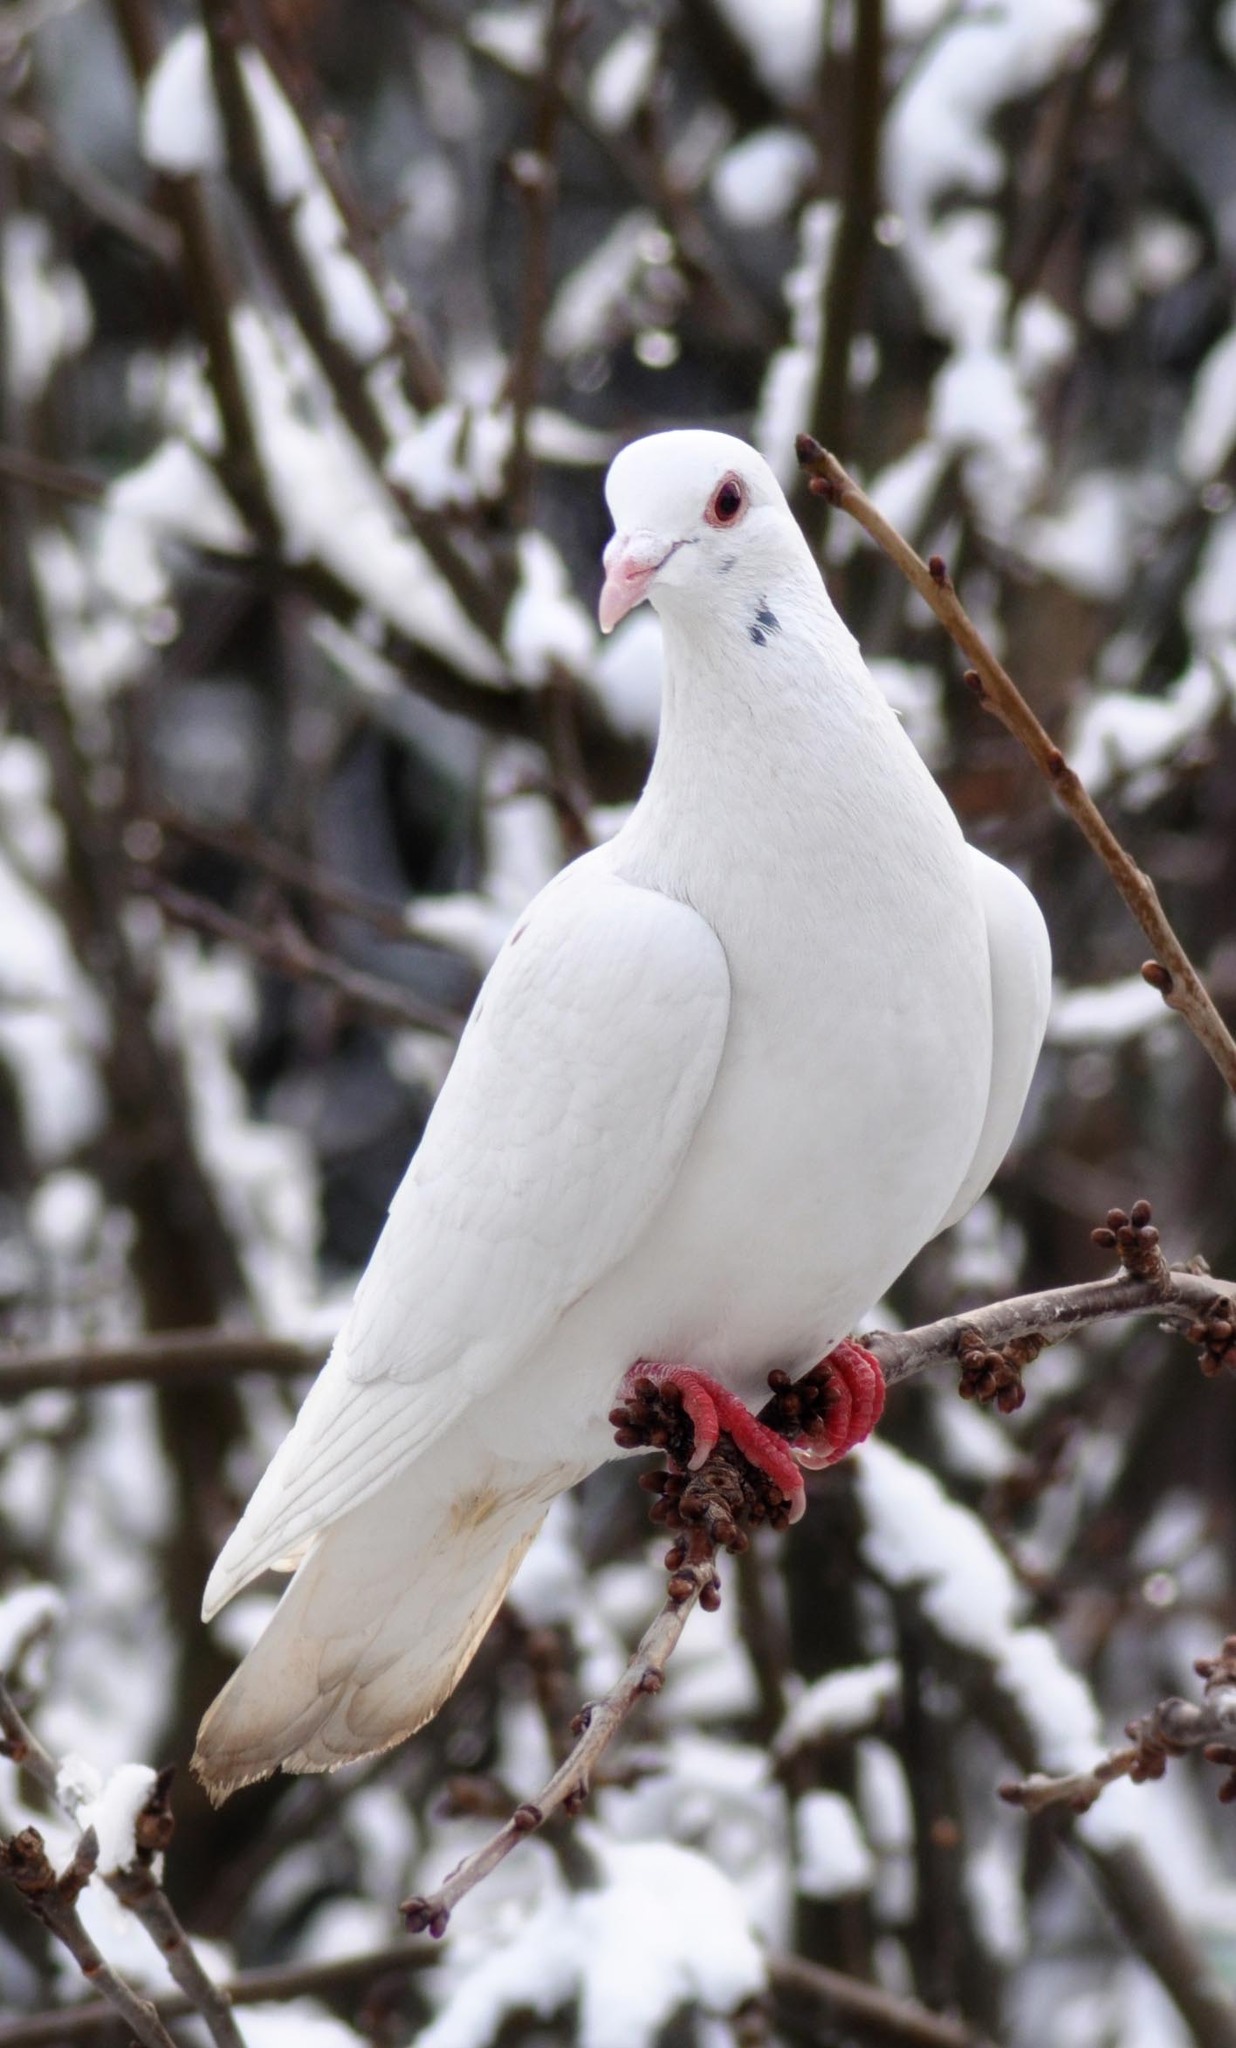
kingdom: Animalia
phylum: Chordata
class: Aves
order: Columbiformes
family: Columbidae
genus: Columba
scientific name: Columba livia
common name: Rock pigeon
